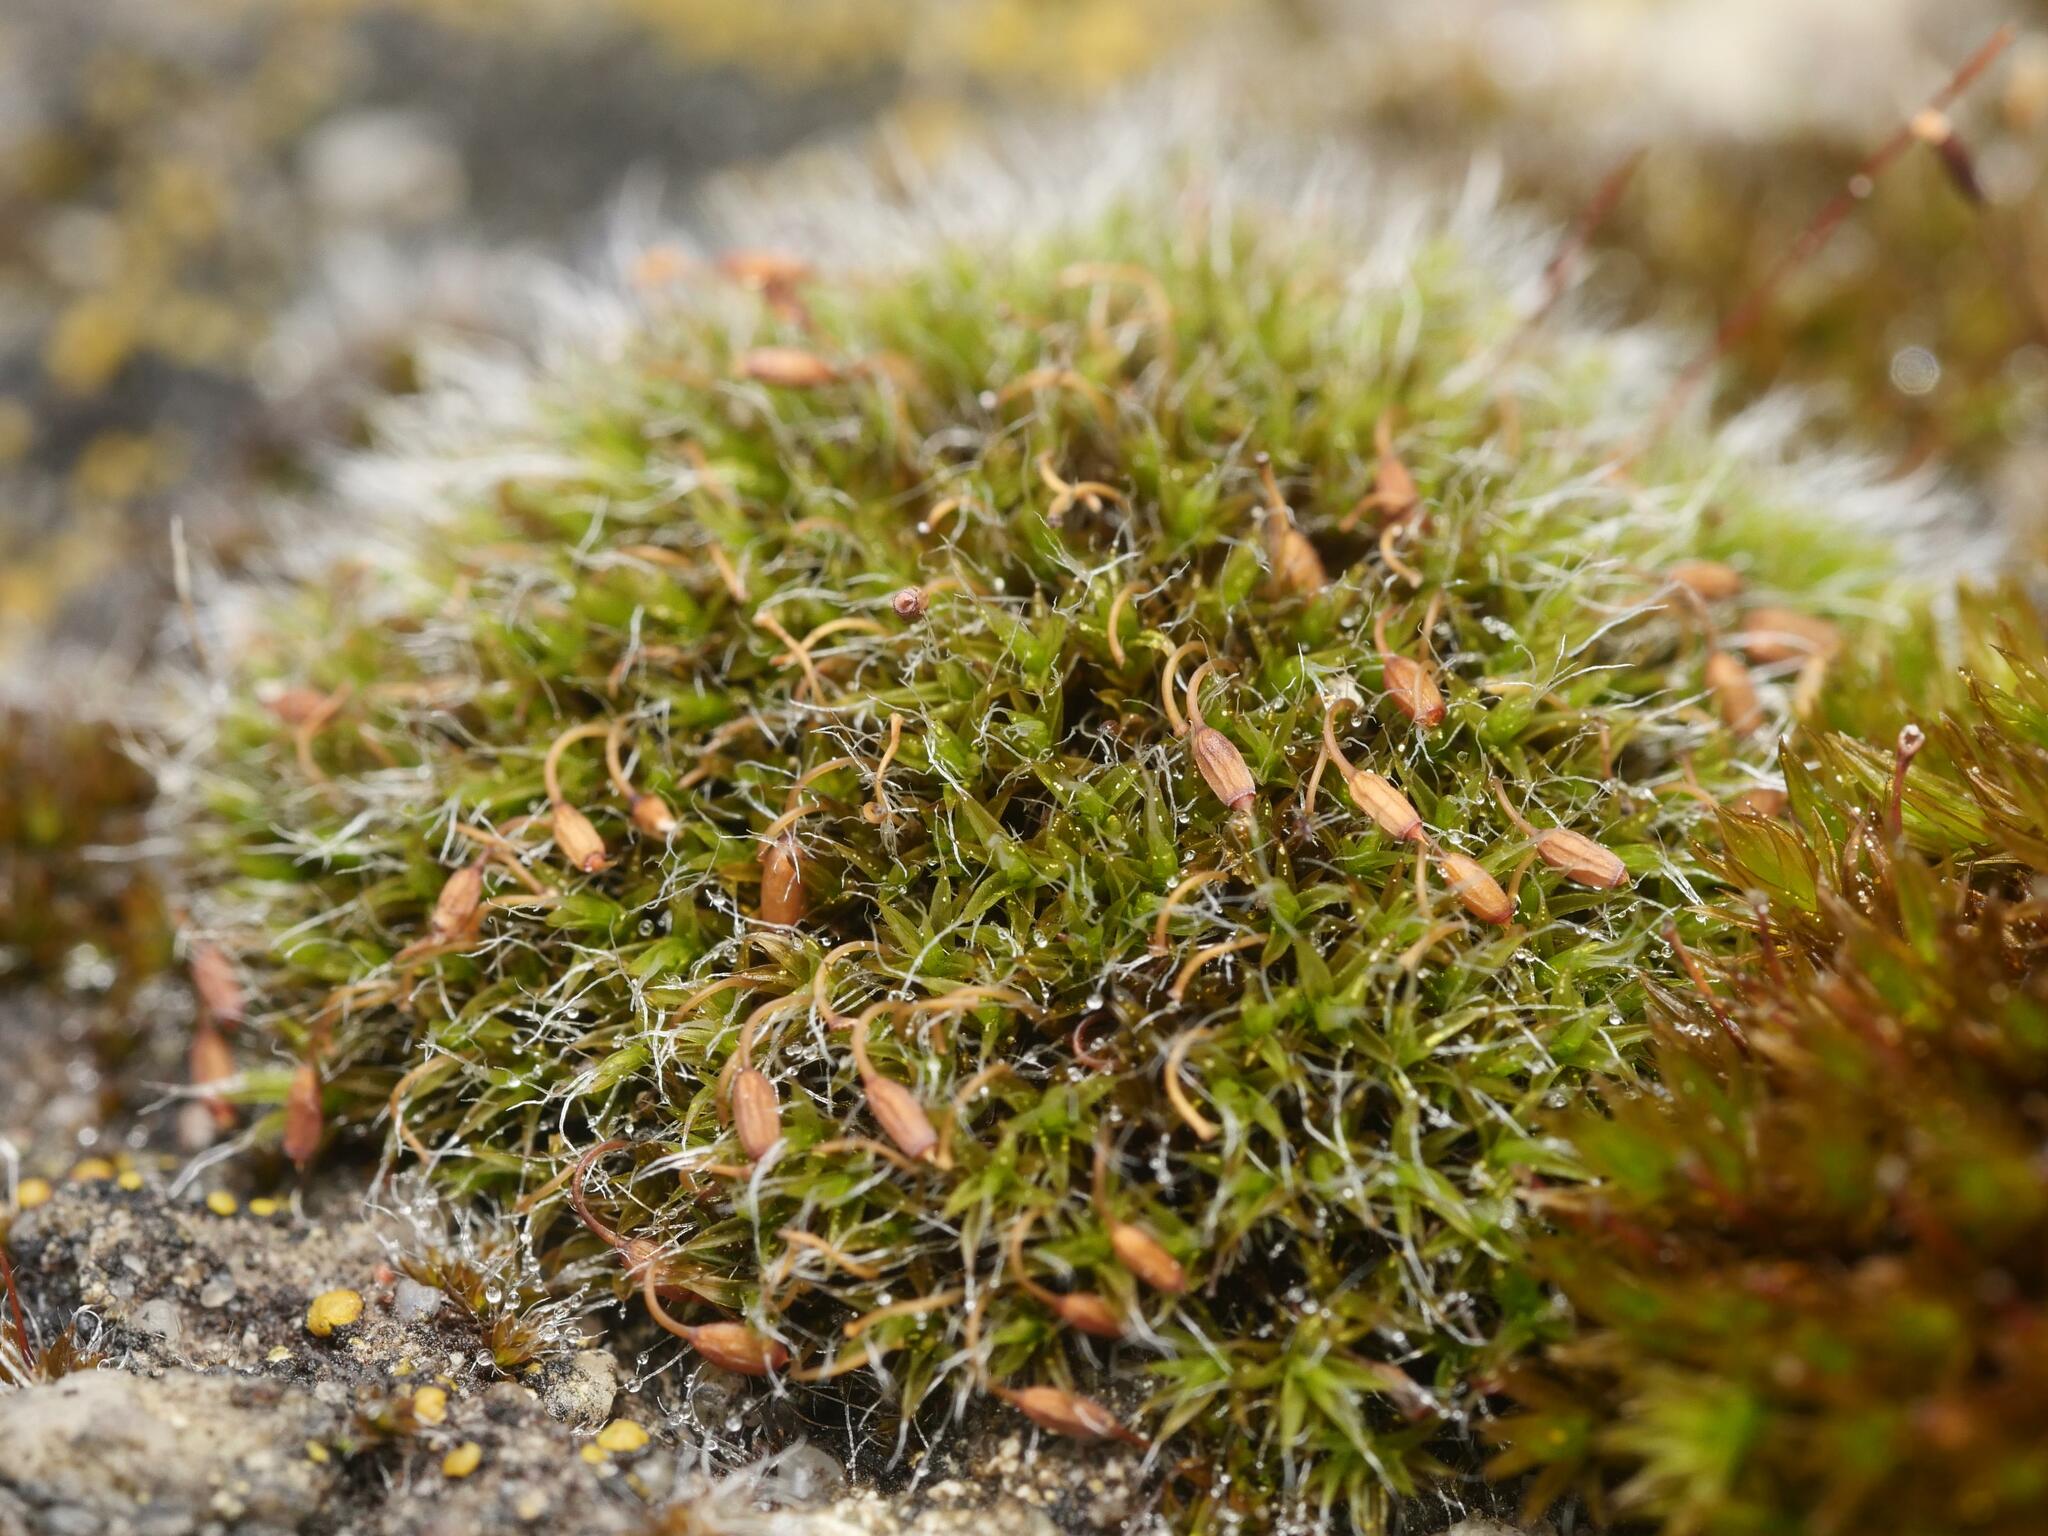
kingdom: Plantae
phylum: Bryophyta
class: Bryopsida
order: Grimmiales
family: Grimmiaceae
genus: Grimmia
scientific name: Grimmia pulvinata
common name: Grey-cushioned grimmia
